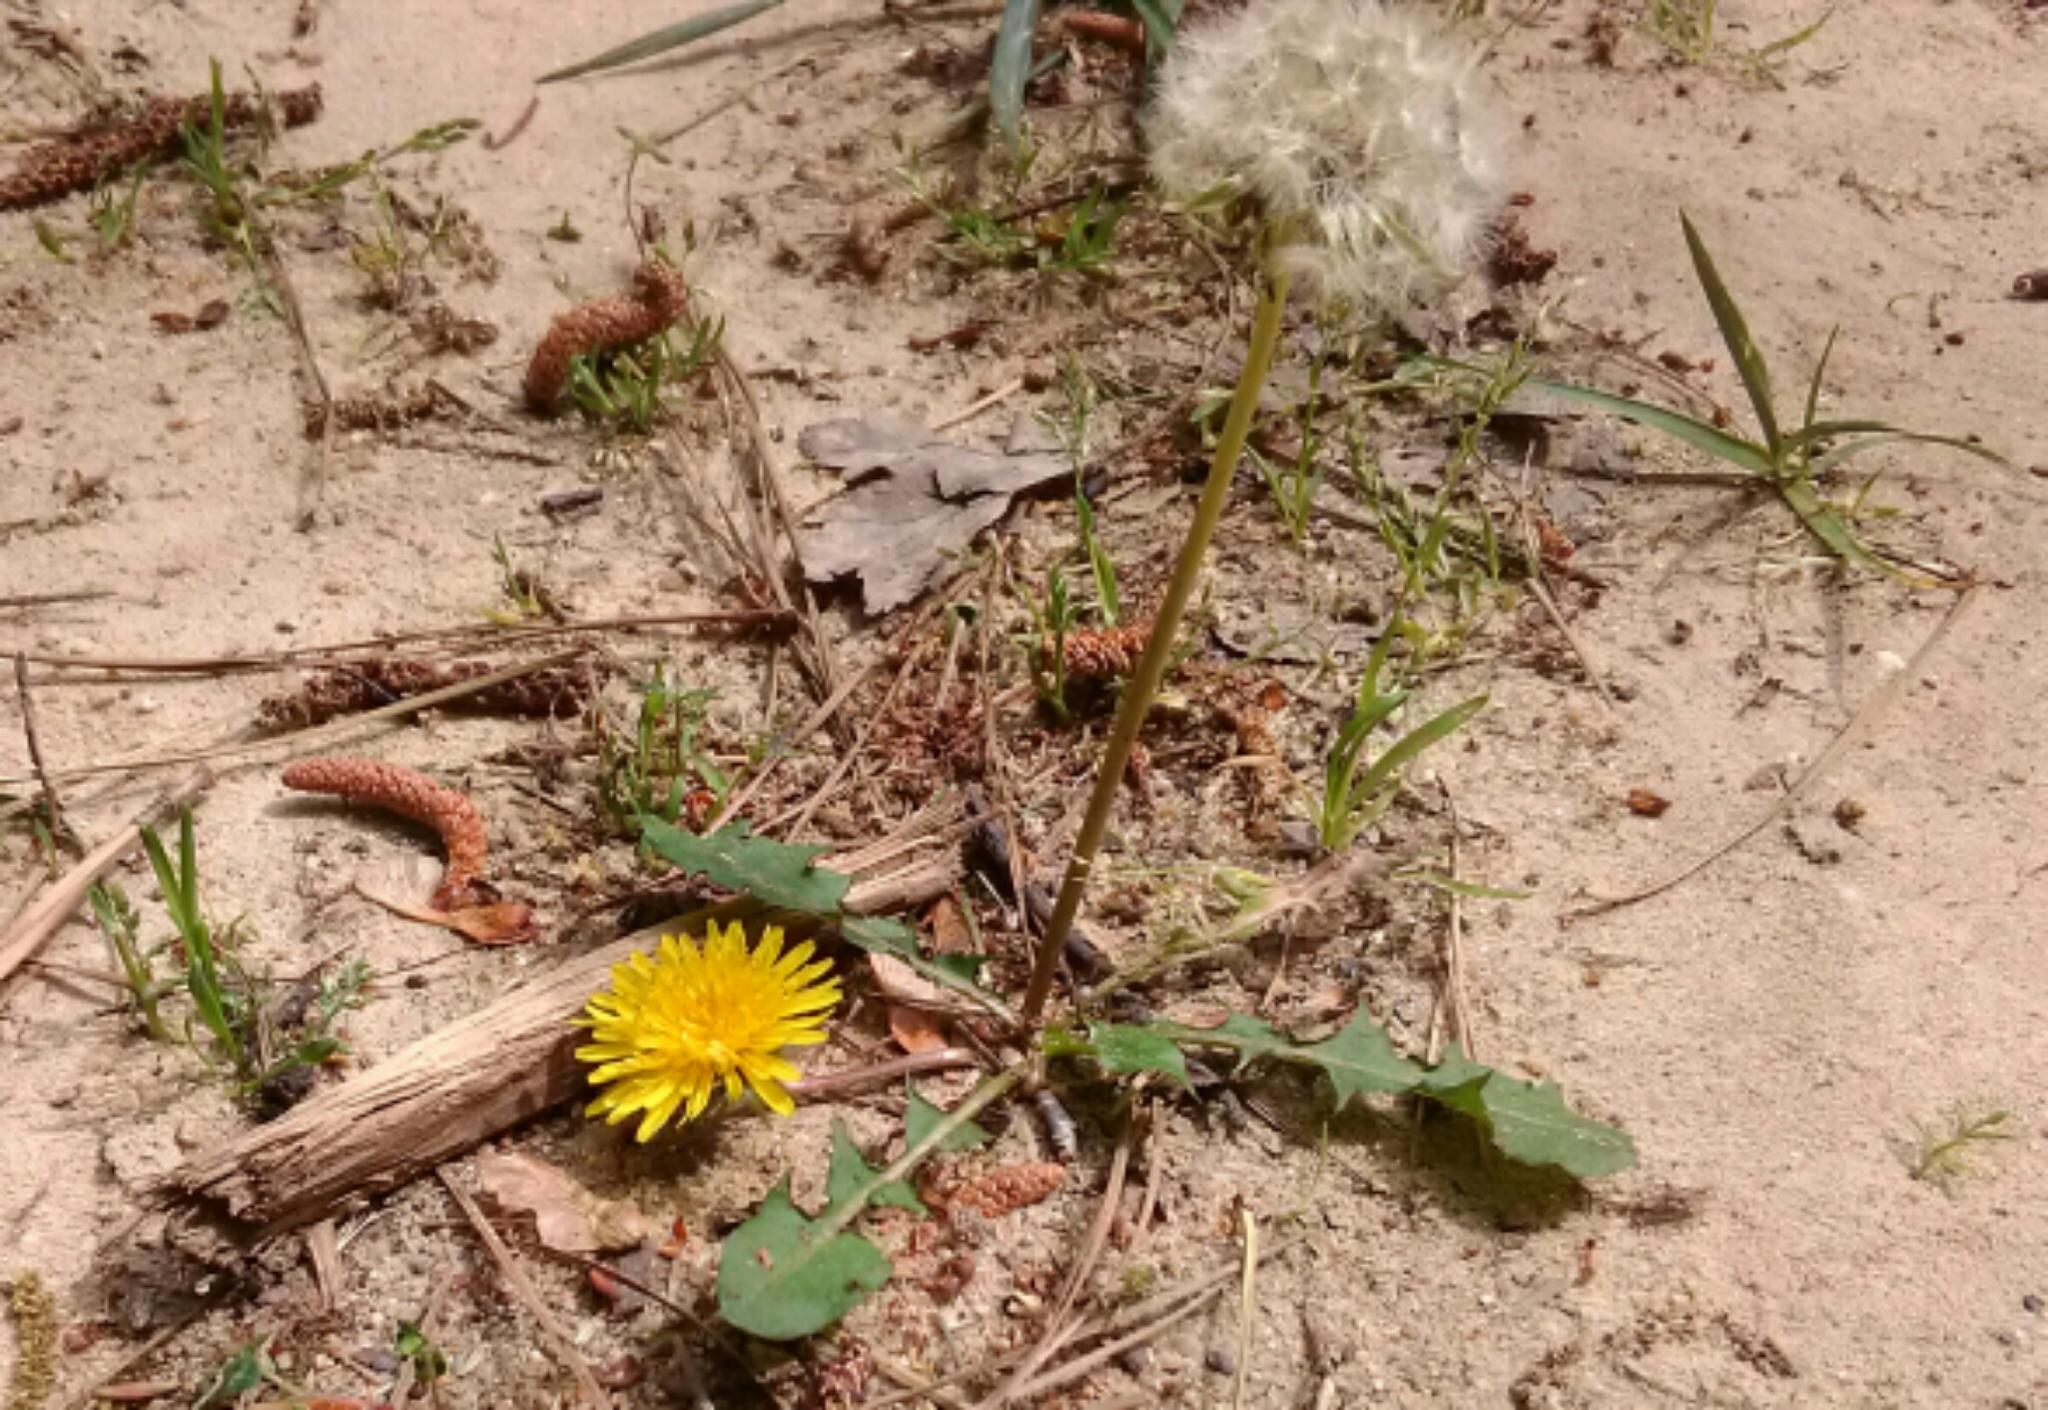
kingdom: Plantae
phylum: Tracheophyta
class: Magnoliopsida
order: Asterales
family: Asteraceae
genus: Taraxacum
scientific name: Taraxacum officinale
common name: Common dandelion
